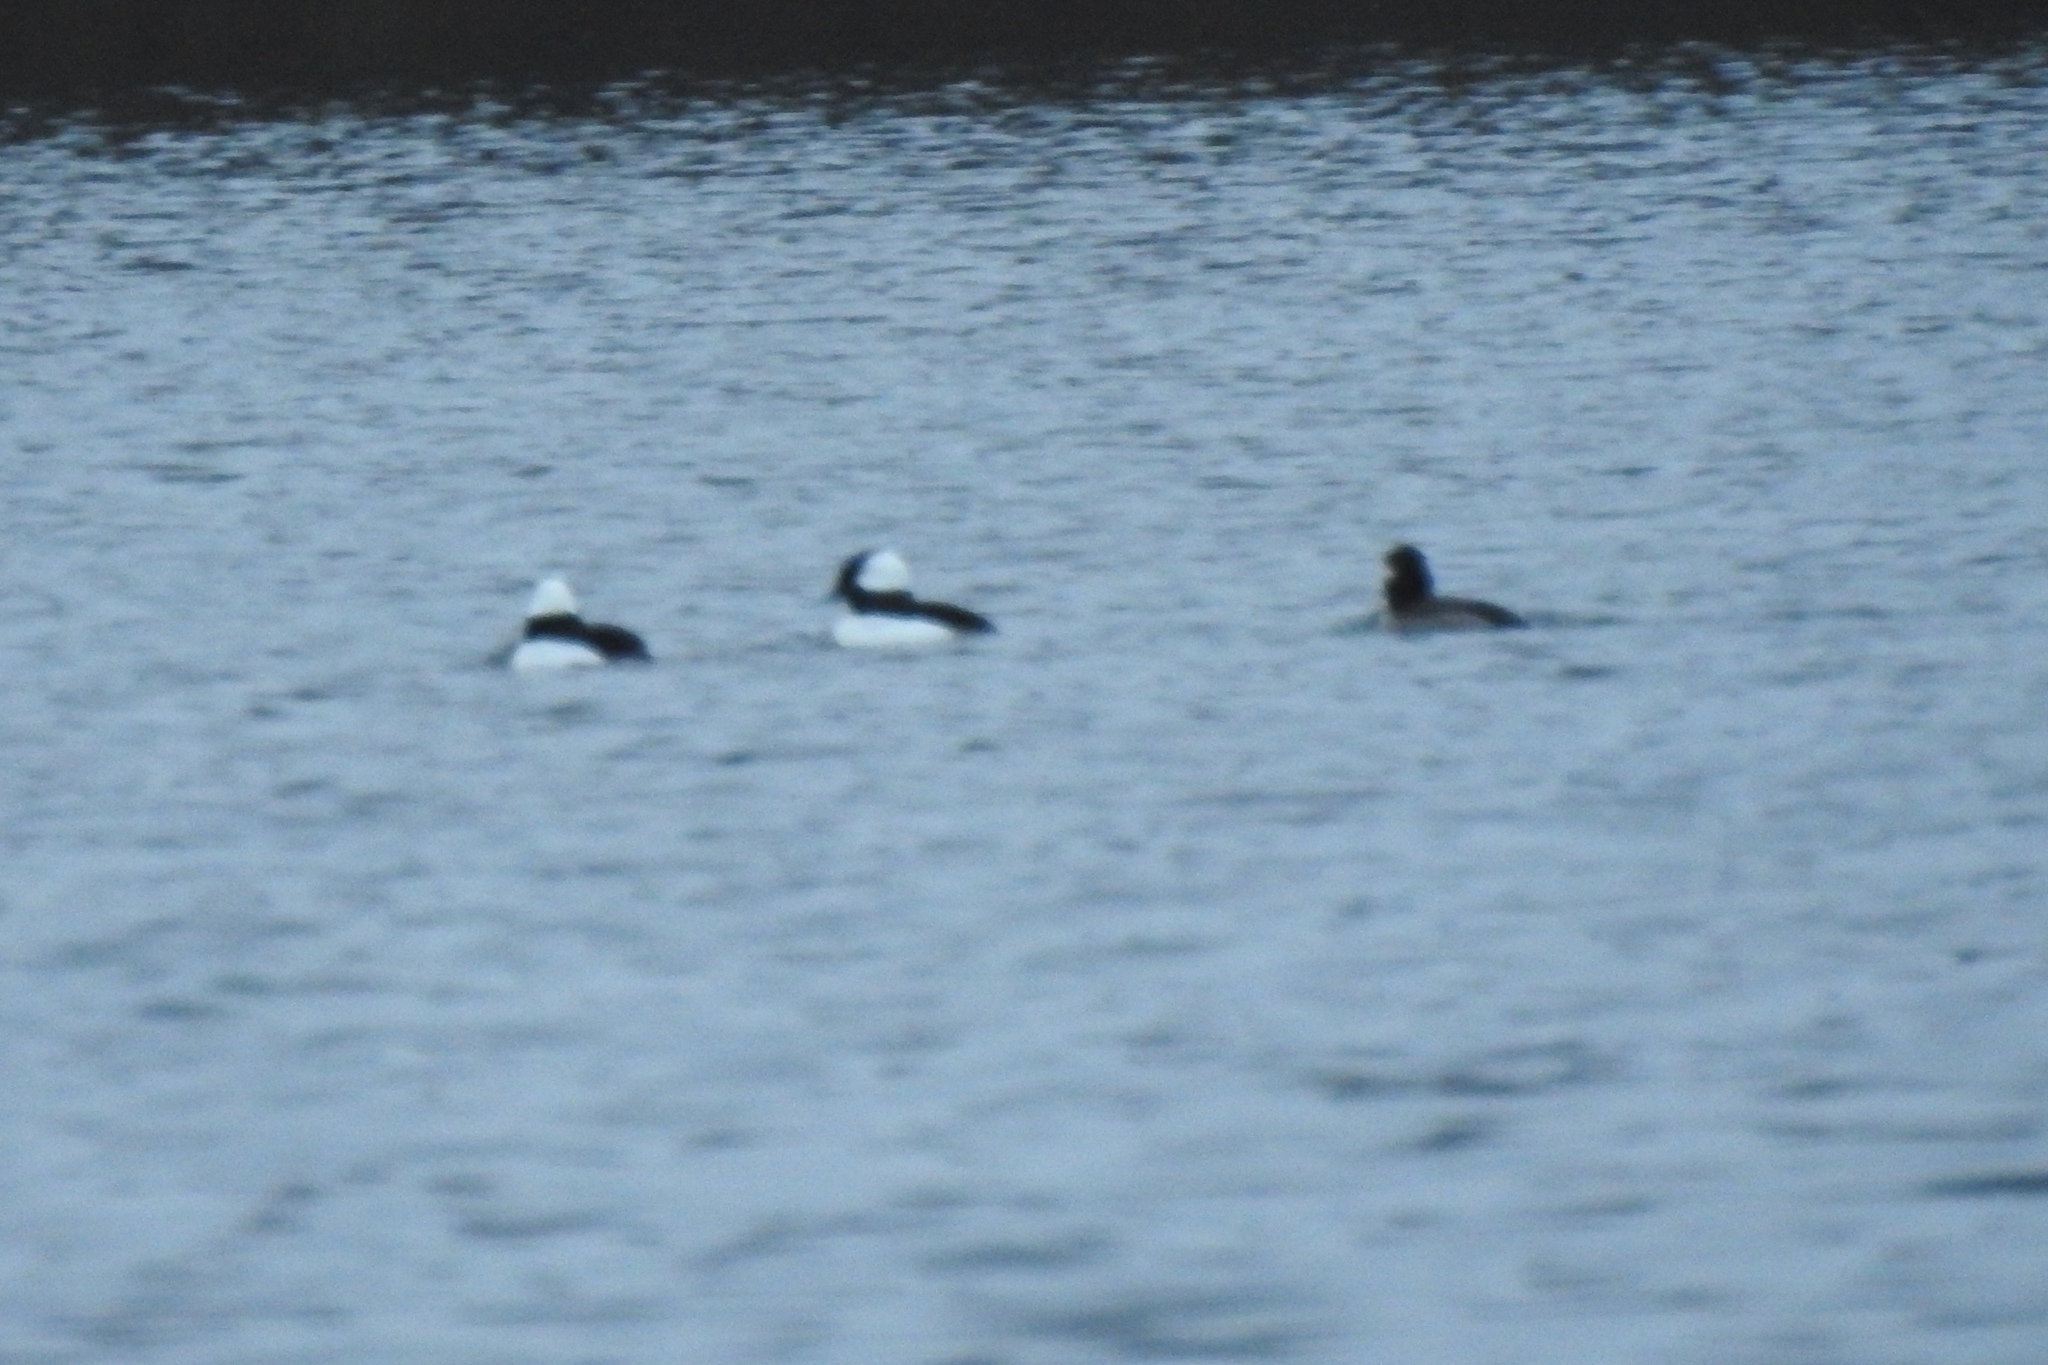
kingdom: Animalia
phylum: Chordata
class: Aves
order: Anseriformes
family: Anatidae
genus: Bucephala
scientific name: Bucephala albeola
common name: Bufflehead
